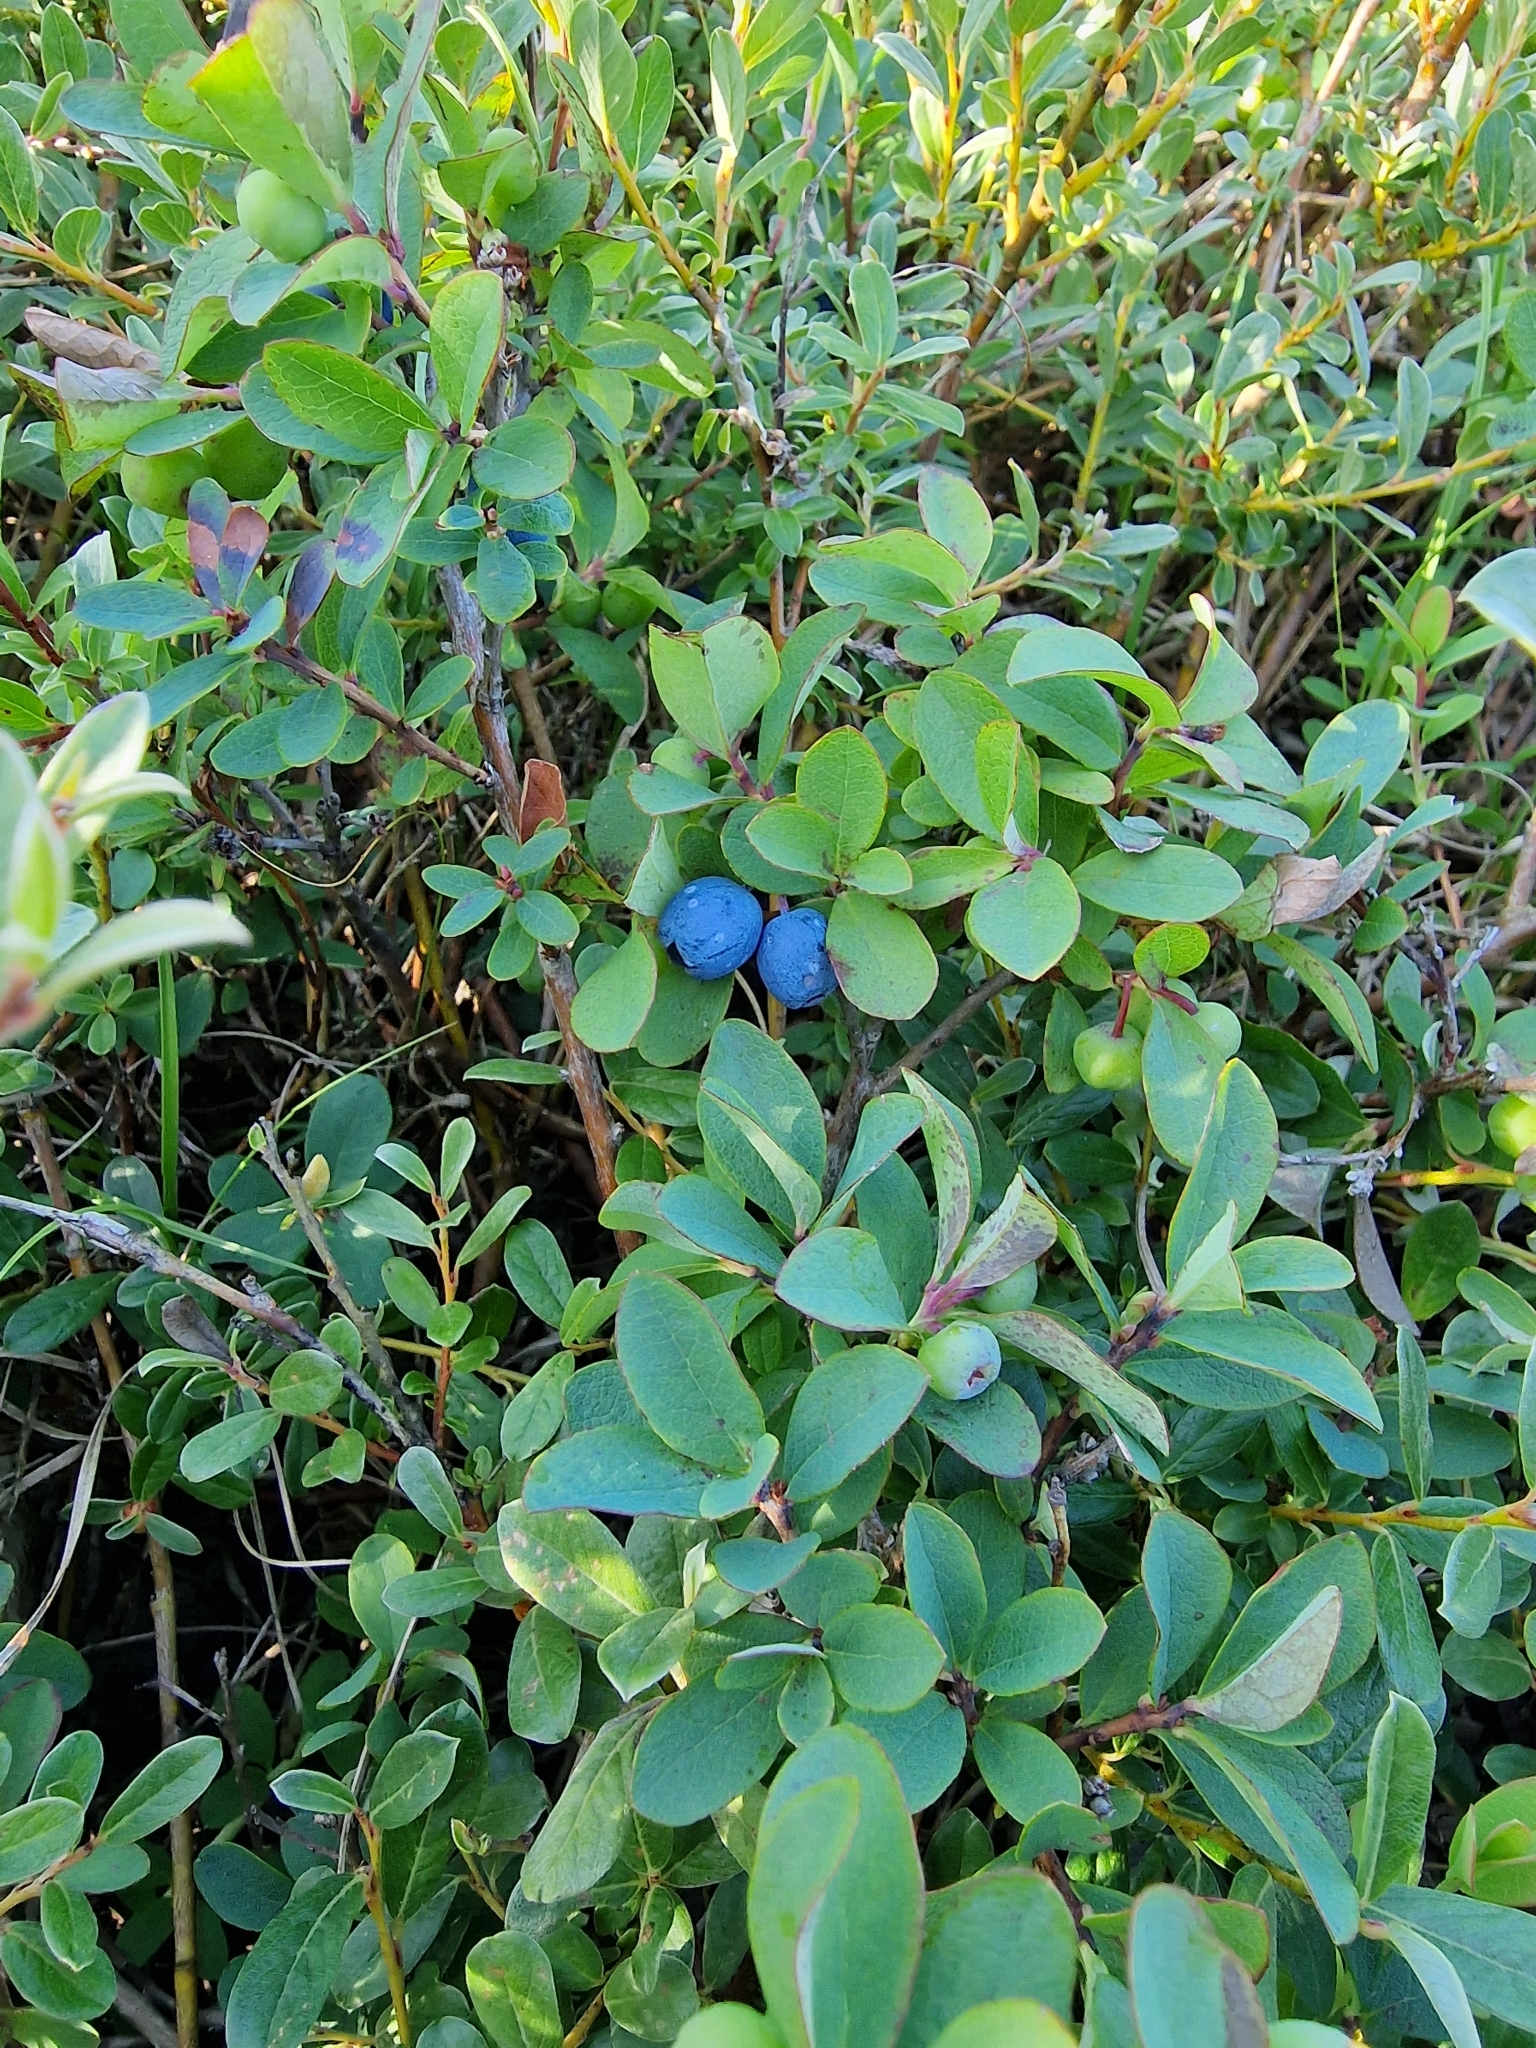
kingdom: Plantae
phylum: Tracheophyta
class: Magnoliopsida
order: Ericales
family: Ericaceae
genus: Vaccinium
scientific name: Vaccinium uliginosum
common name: Bog bilberry
